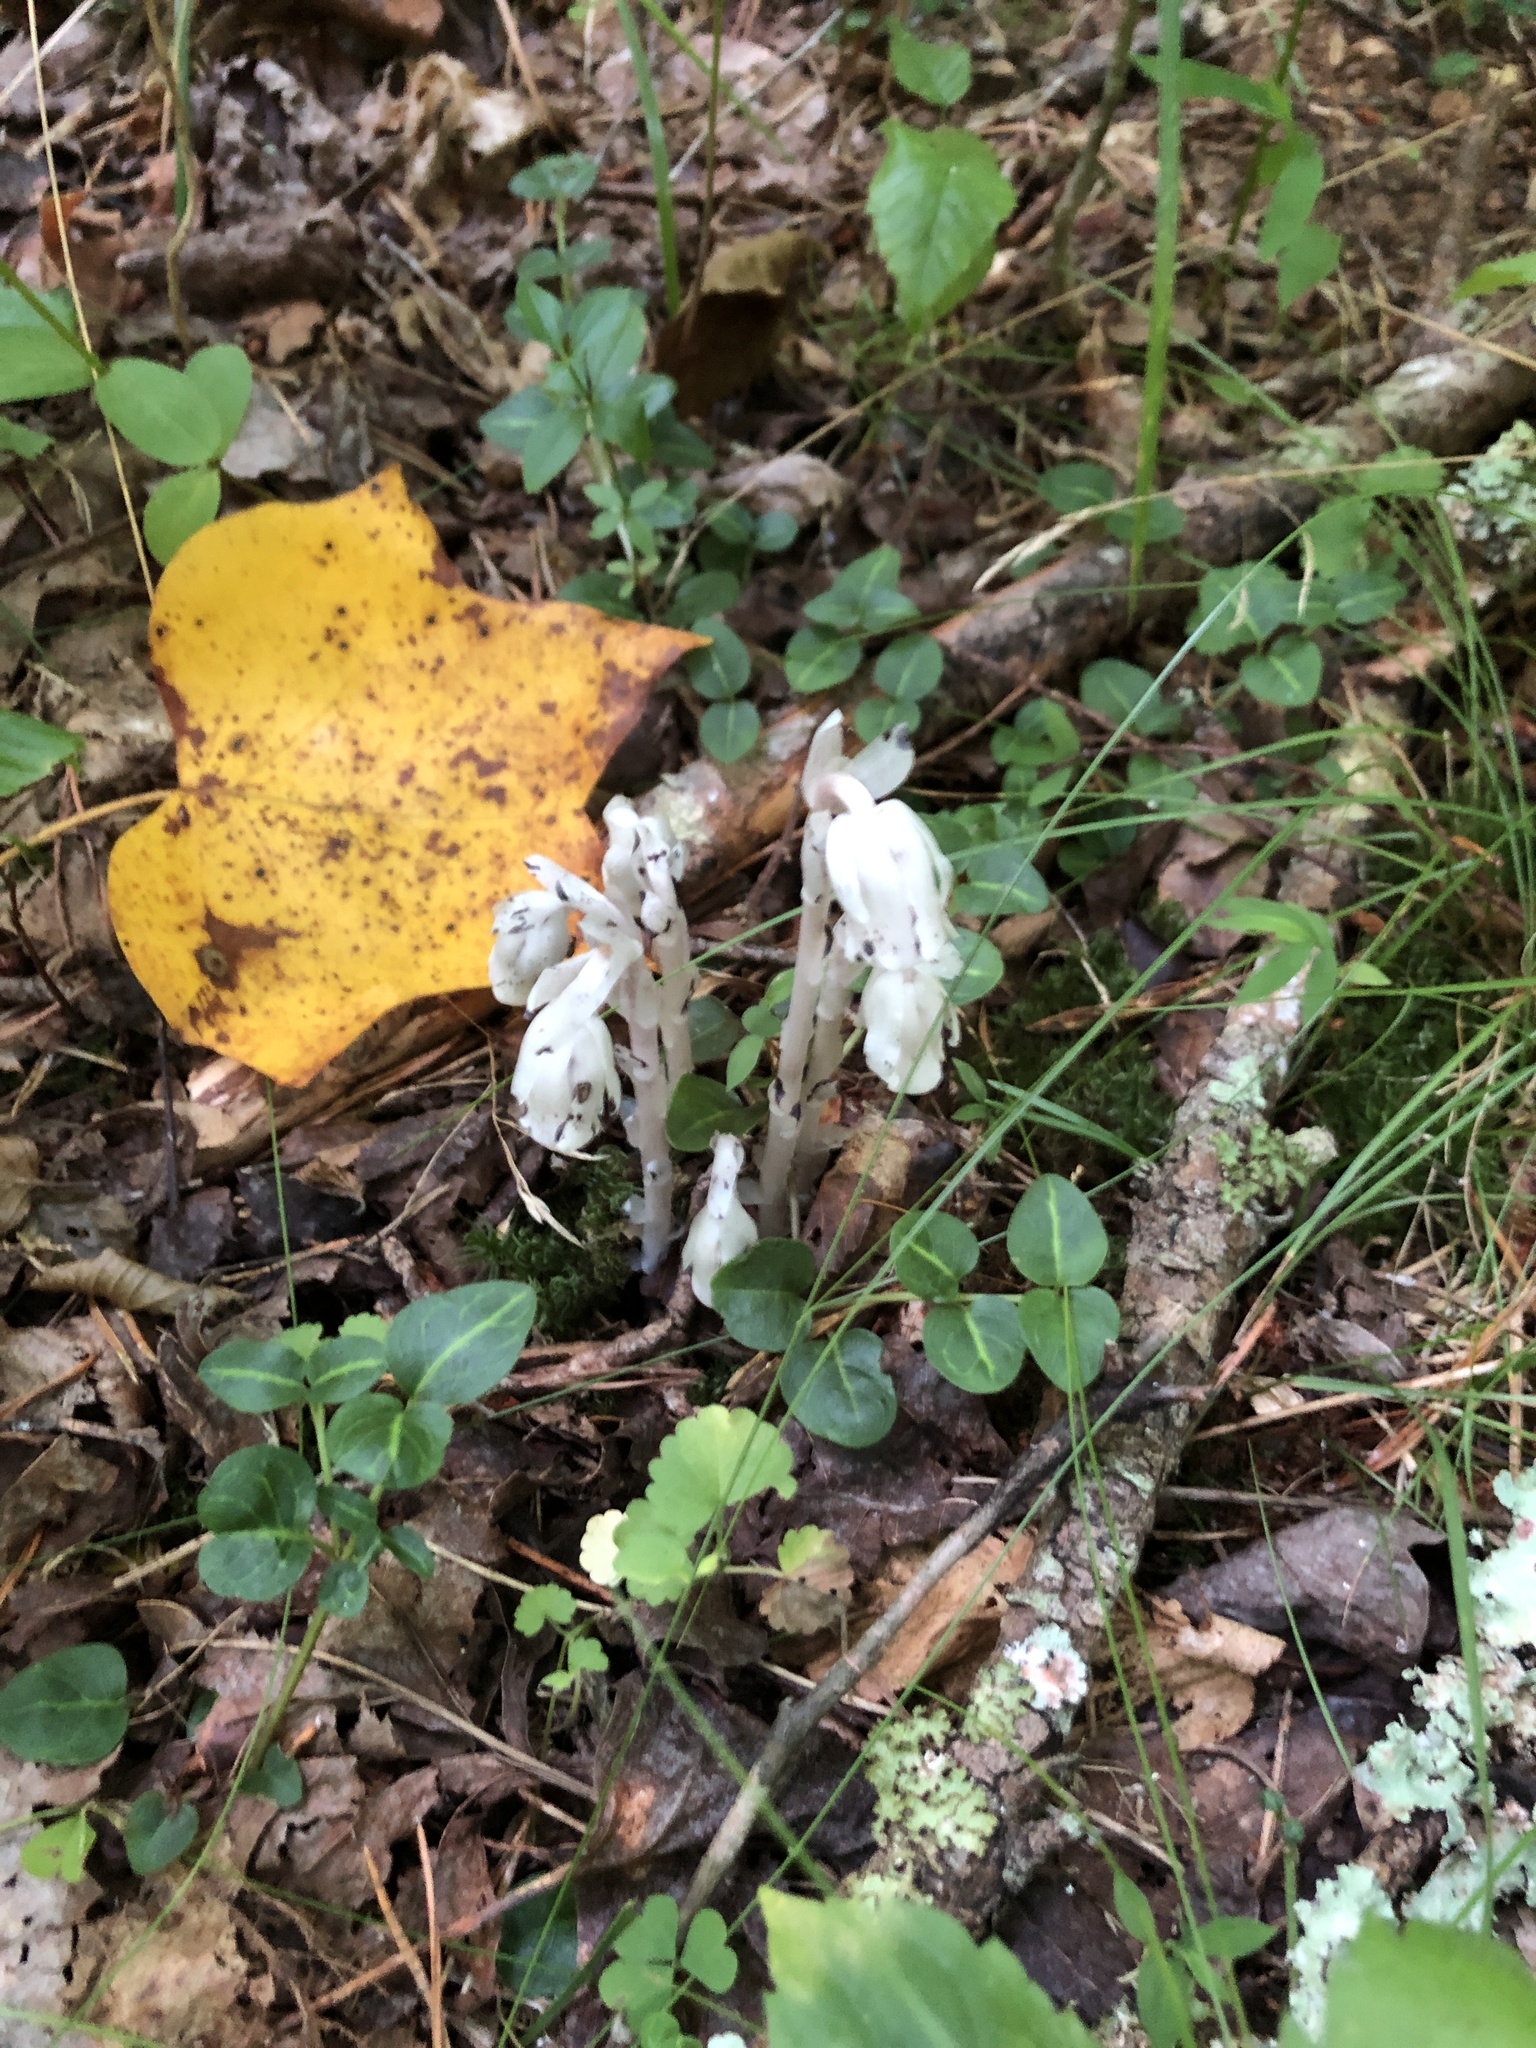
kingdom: Plantae
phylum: Tracheophyta
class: Magnoliopsida
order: Ericales
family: Ericaceae
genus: Monotropa
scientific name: Monotropa uniflora
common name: Convulsion root
